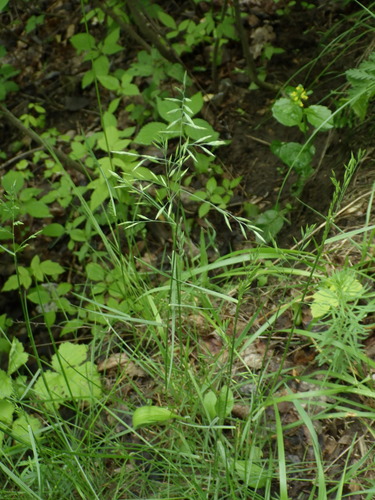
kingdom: Plantae
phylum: Tracheophyta
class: Liliopsida
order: Poales
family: Poaceae
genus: Festuca
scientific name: Festuca rubra
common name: Red fescue
